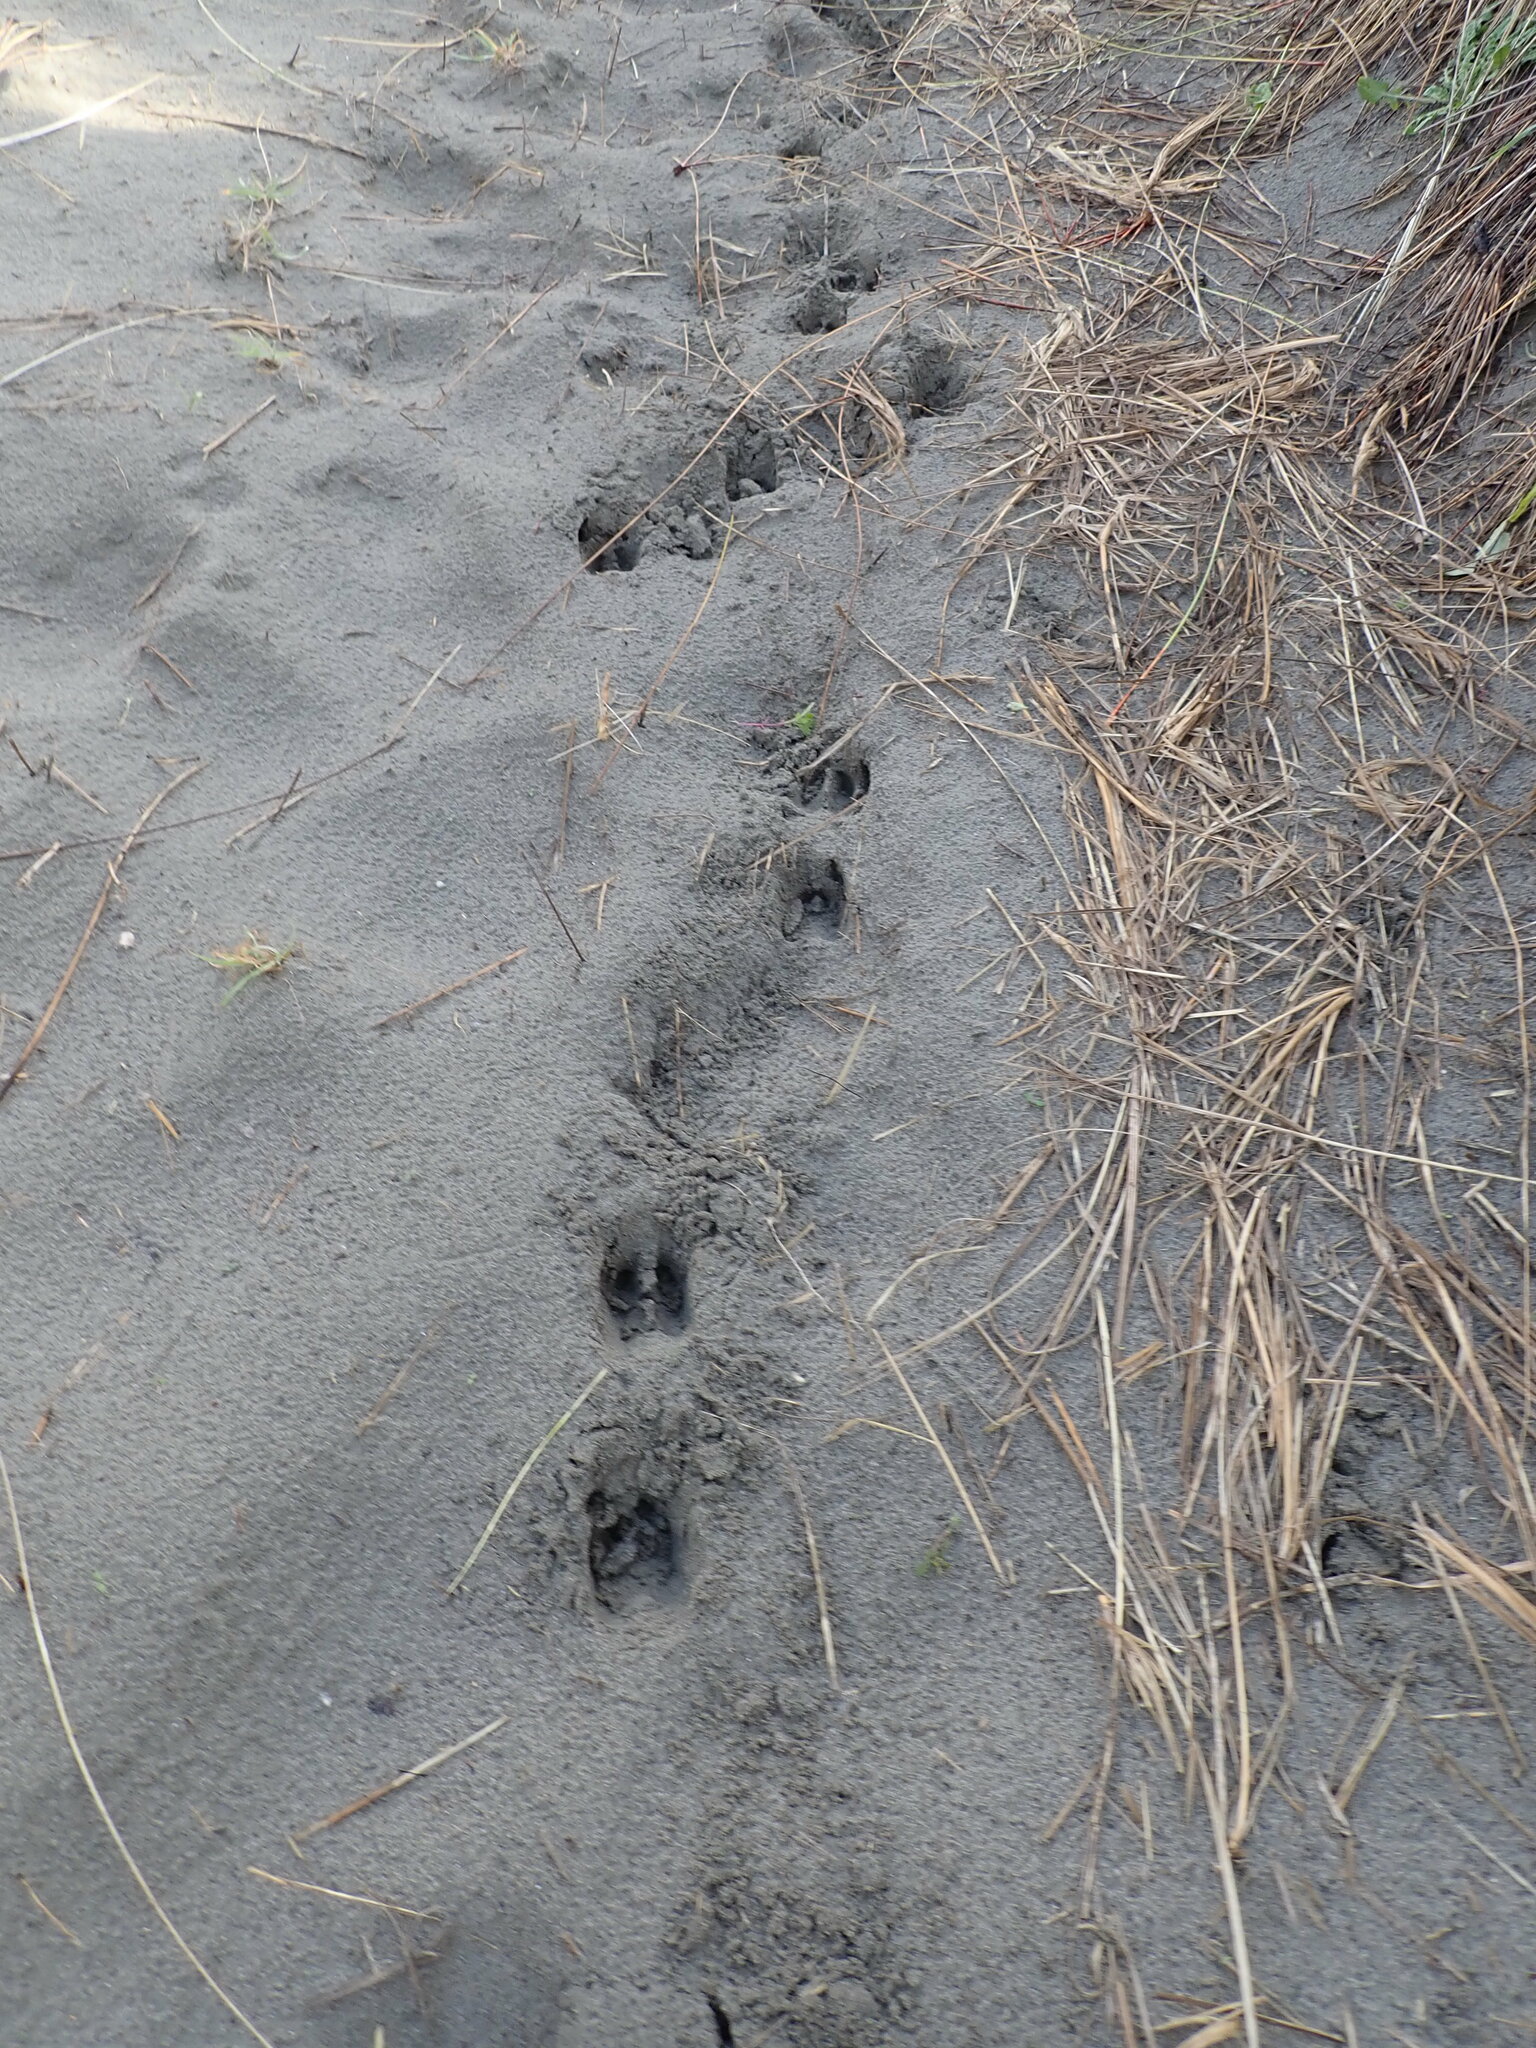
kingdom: Animalia
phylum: Chordata
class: Mammalia
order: Artiodactyla
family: Cervidae
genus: Rusa
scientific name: Rusa unicolor
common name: Sambar
